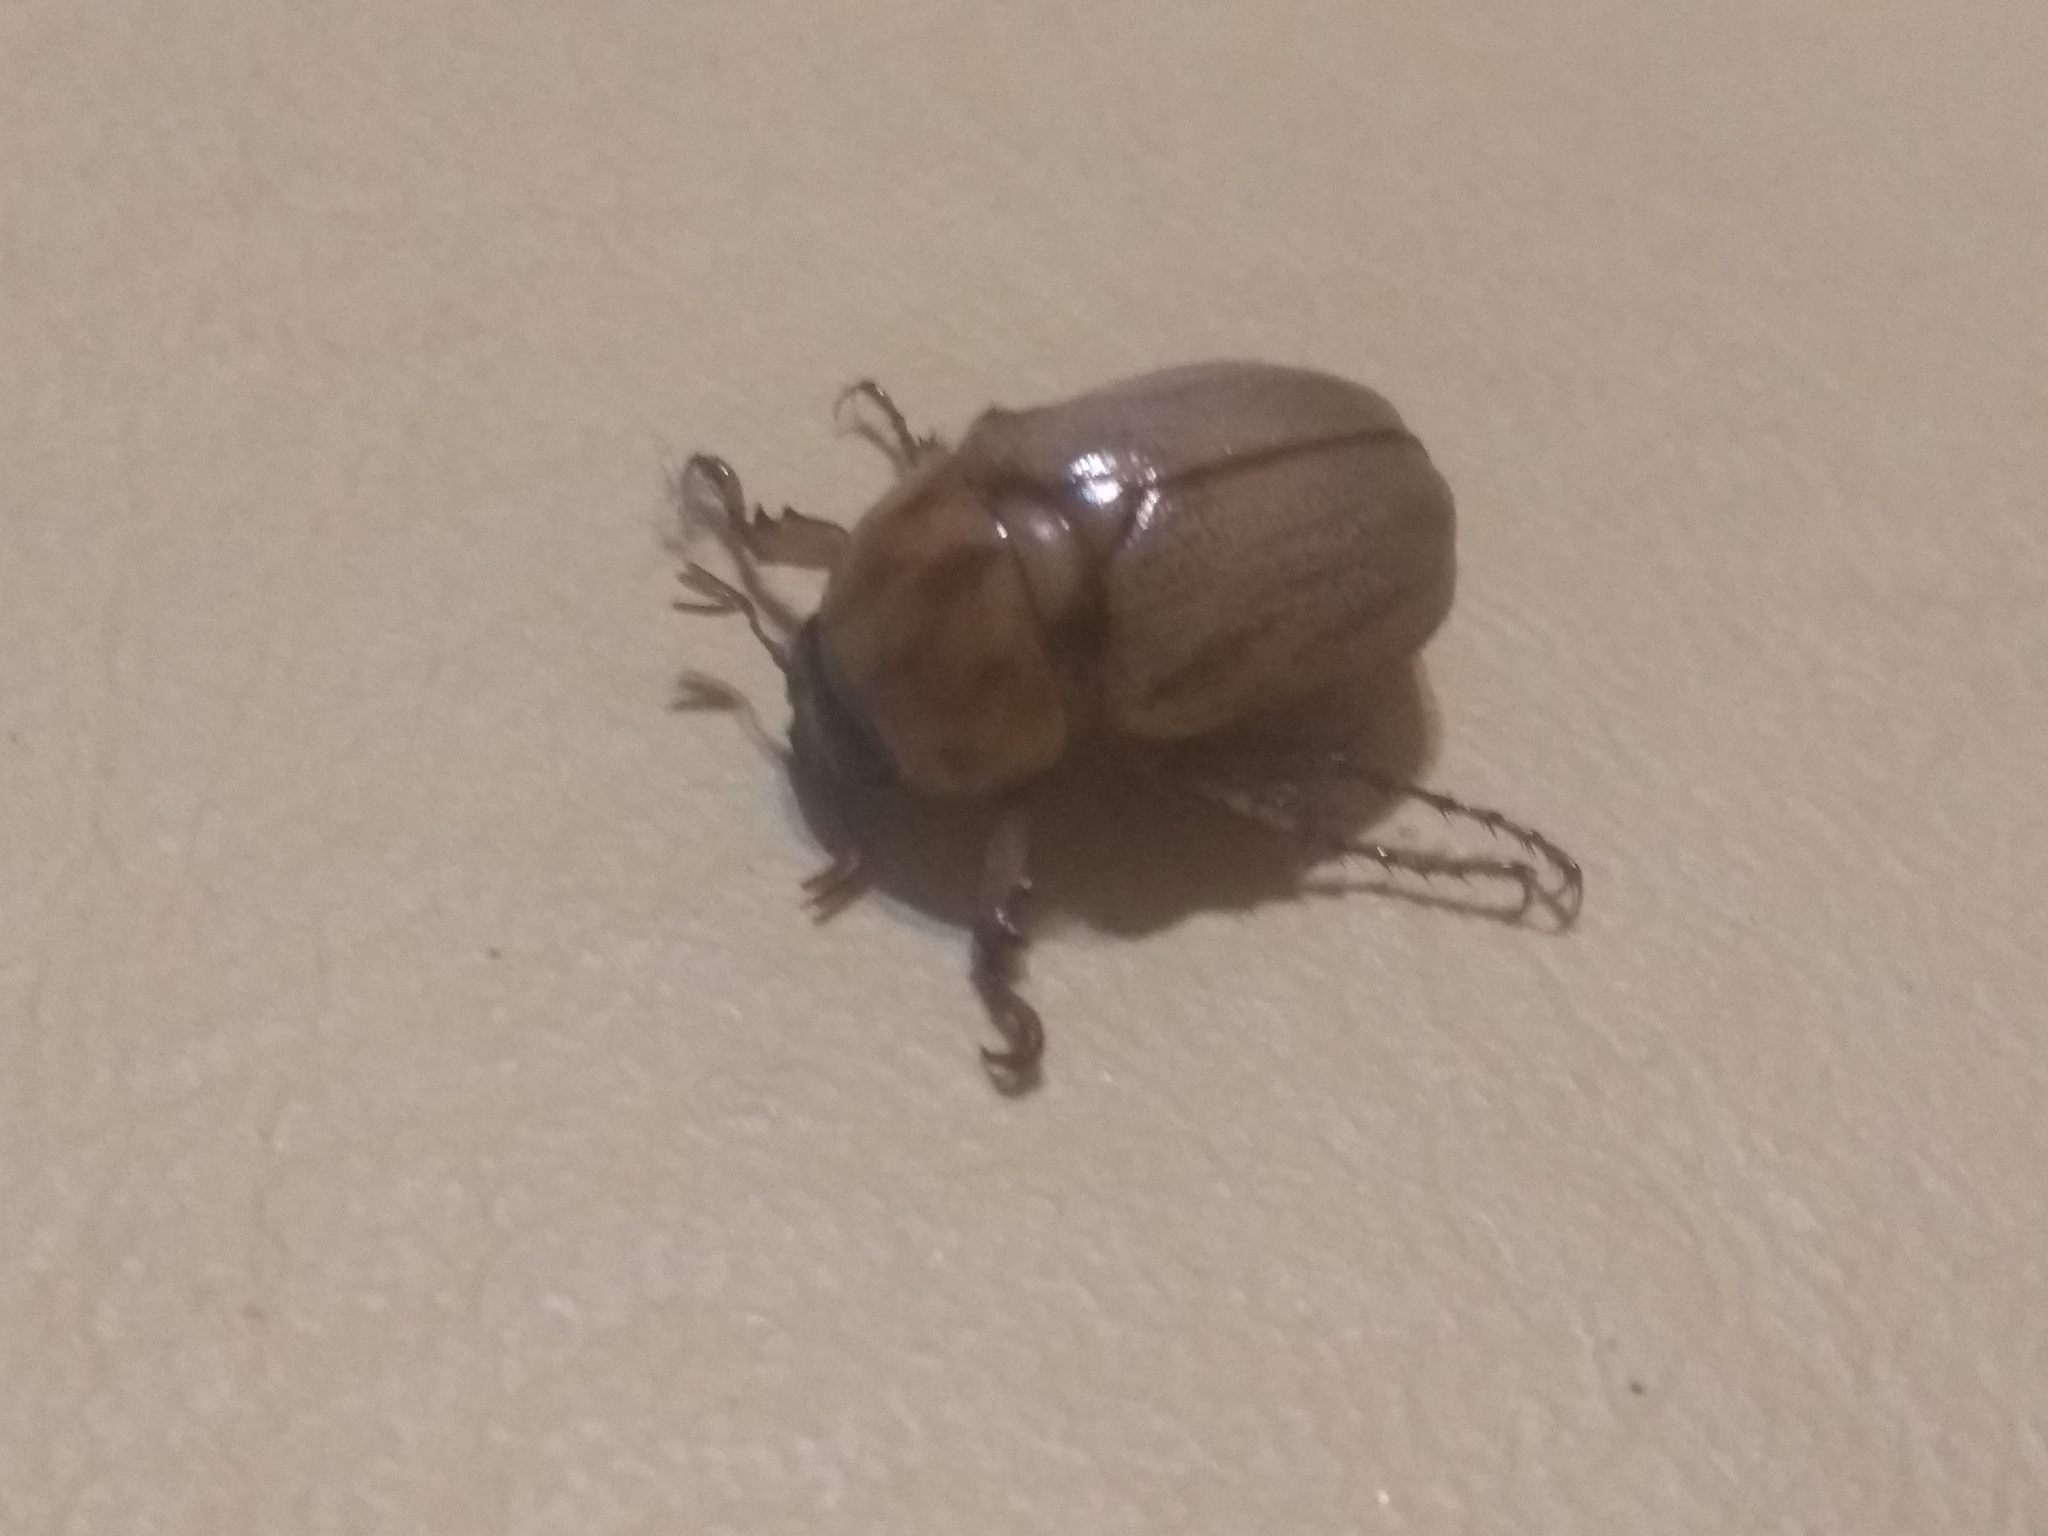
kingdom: Animalia
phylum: Arthropoda
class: Insecta
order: Coleoptera
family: Scarabaeidae
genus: Cyclocephala
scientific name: Cyclocephala signaticollis
